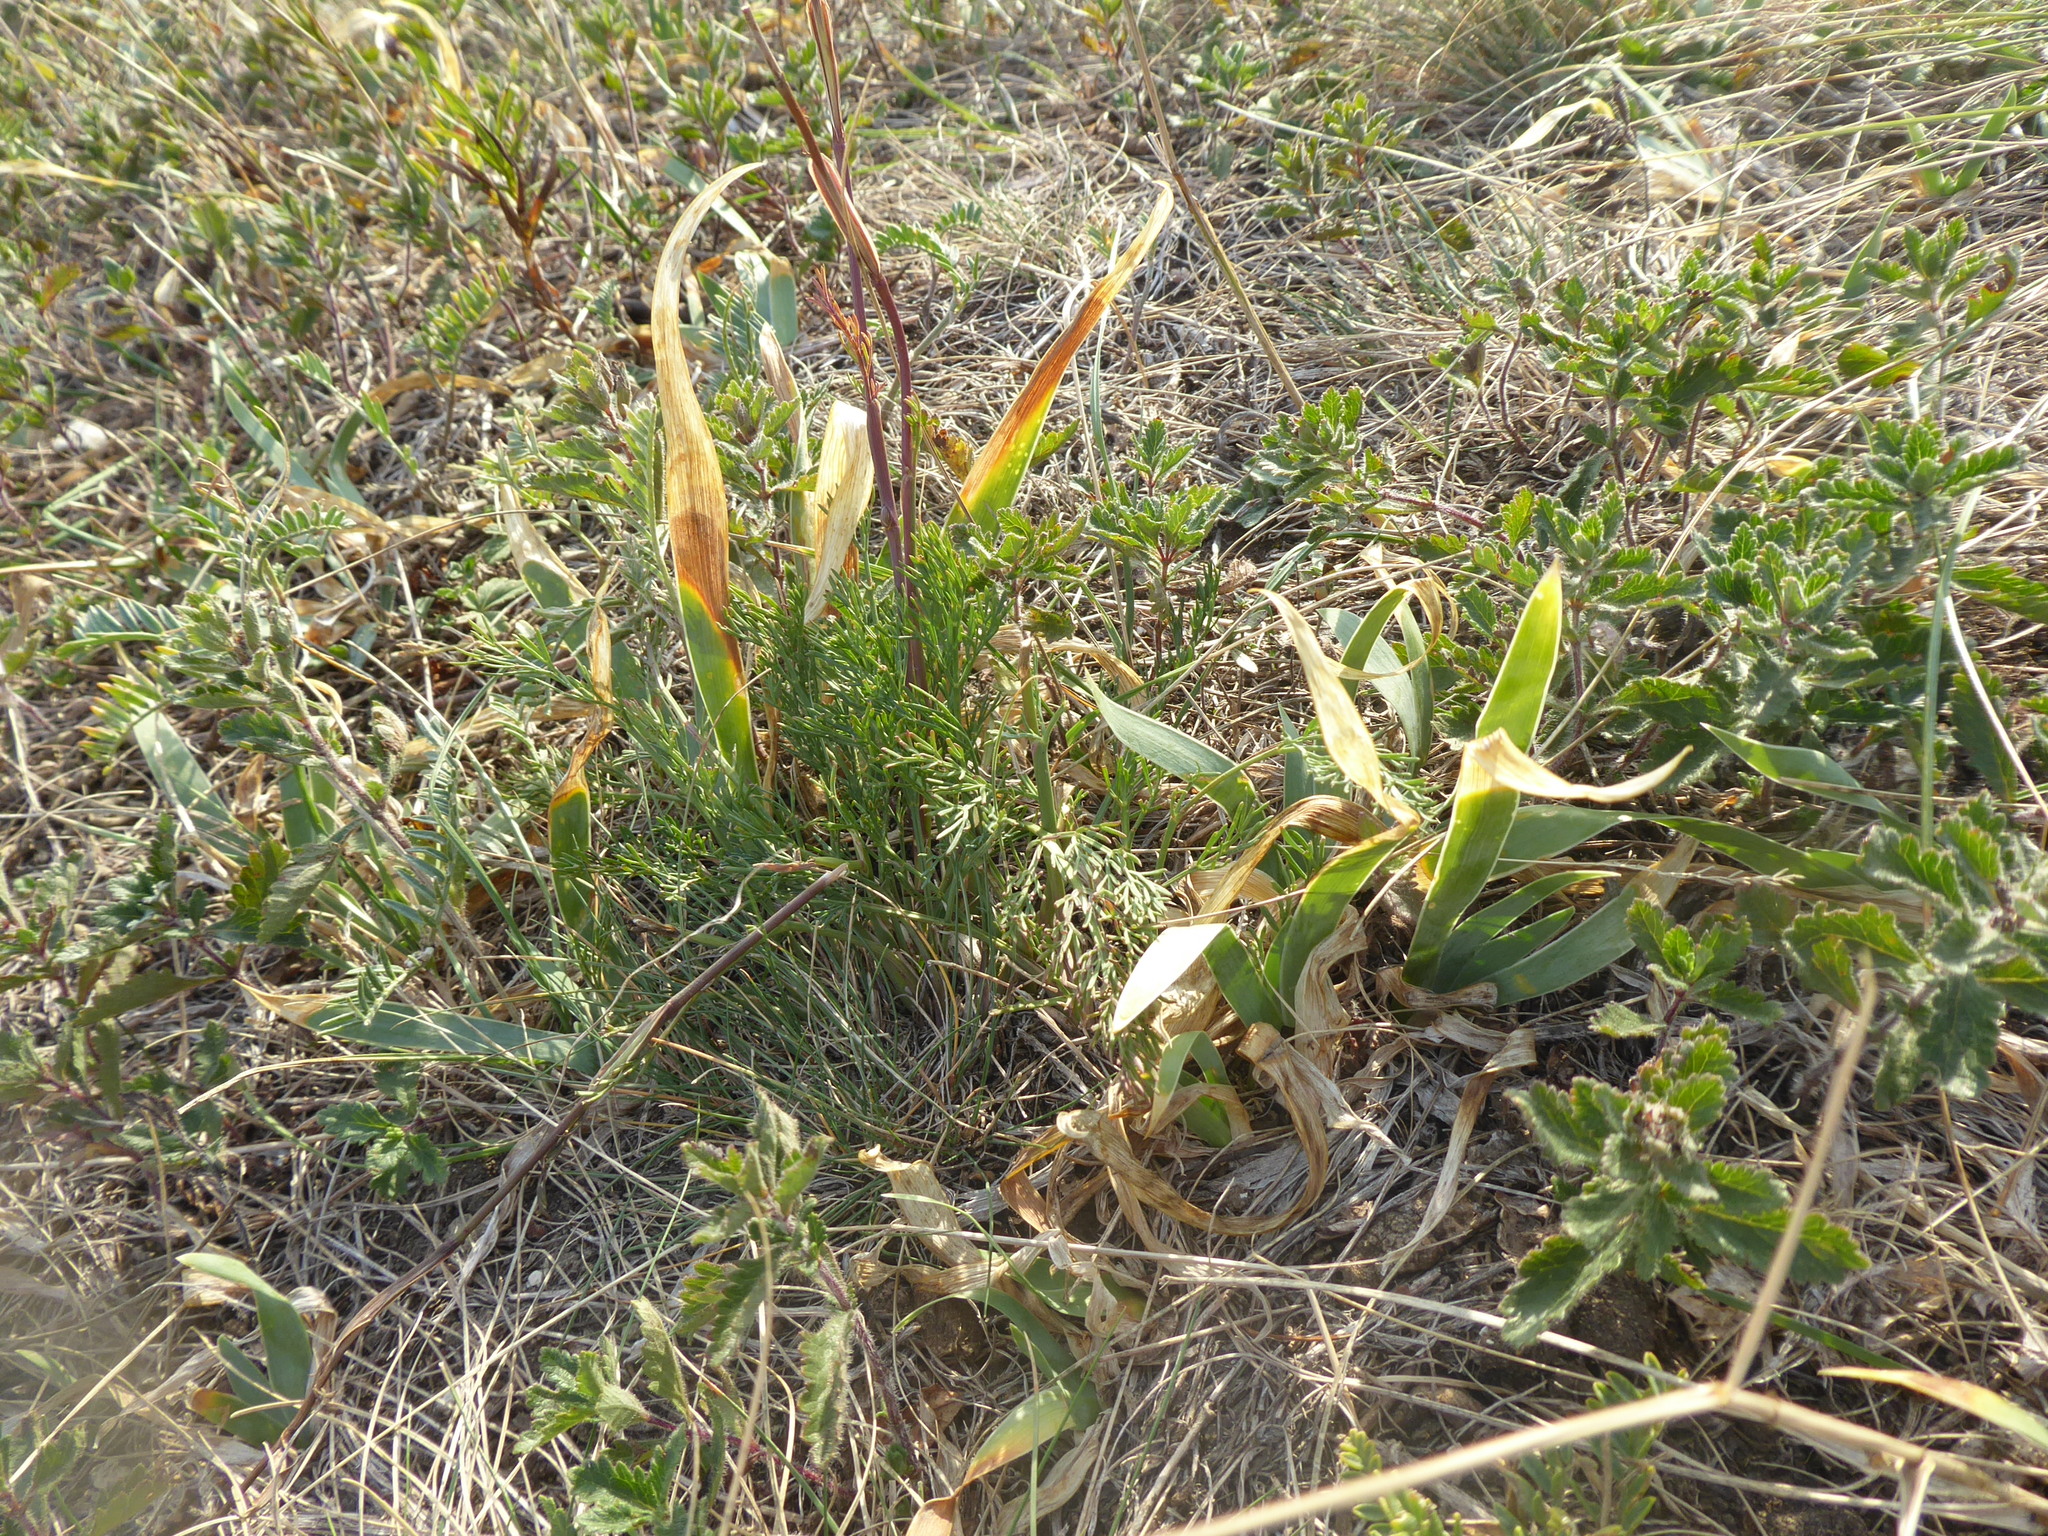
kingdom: Plantae
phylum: Tracheophyta
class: Liliopsida
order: Asparagales
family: Iridaceae
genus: Iris
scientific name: Iris pumila
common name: Dwarf iris
